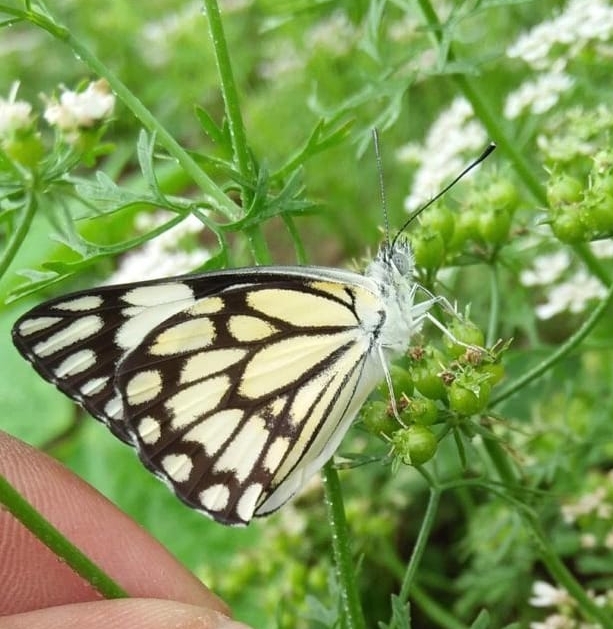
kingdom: Animalia
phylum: Arthropoda
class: Insecta
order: Lepidoptera
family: Pieridae
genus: Belenois
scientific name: Belenois aurota
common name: Brown-veined white
